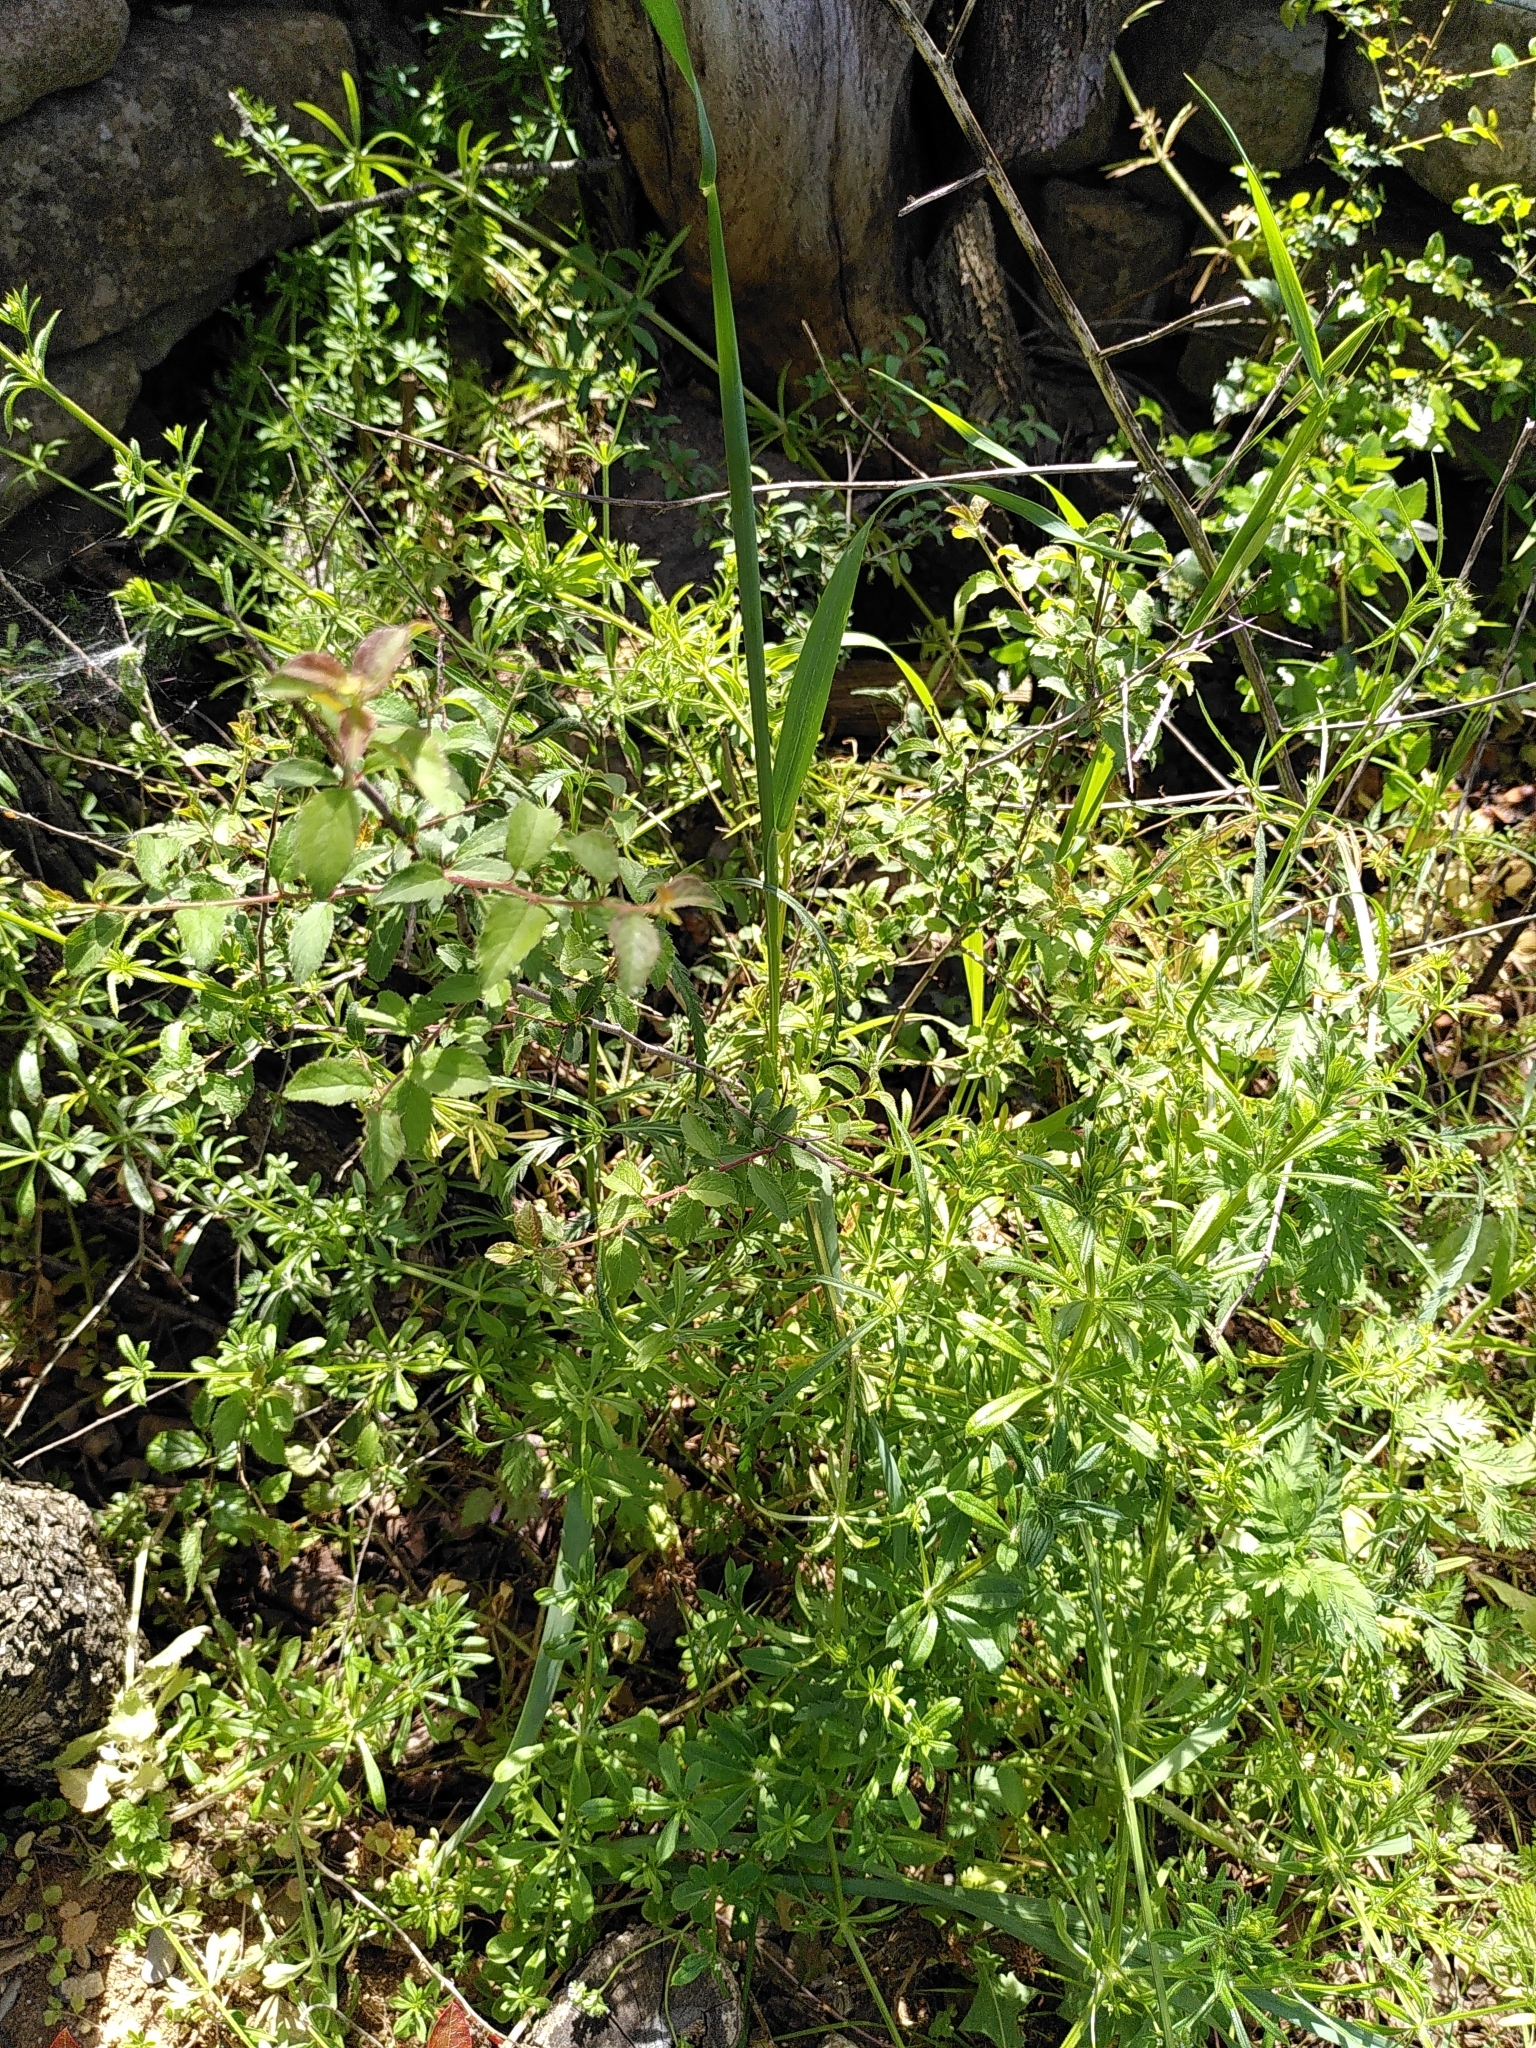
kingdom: Plantae
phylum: Tracheophyta
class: Magnoliopsida
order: Rosales
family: Rosaceae
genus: Prunus
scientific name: Prunus spinosa
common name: Blackthorn
